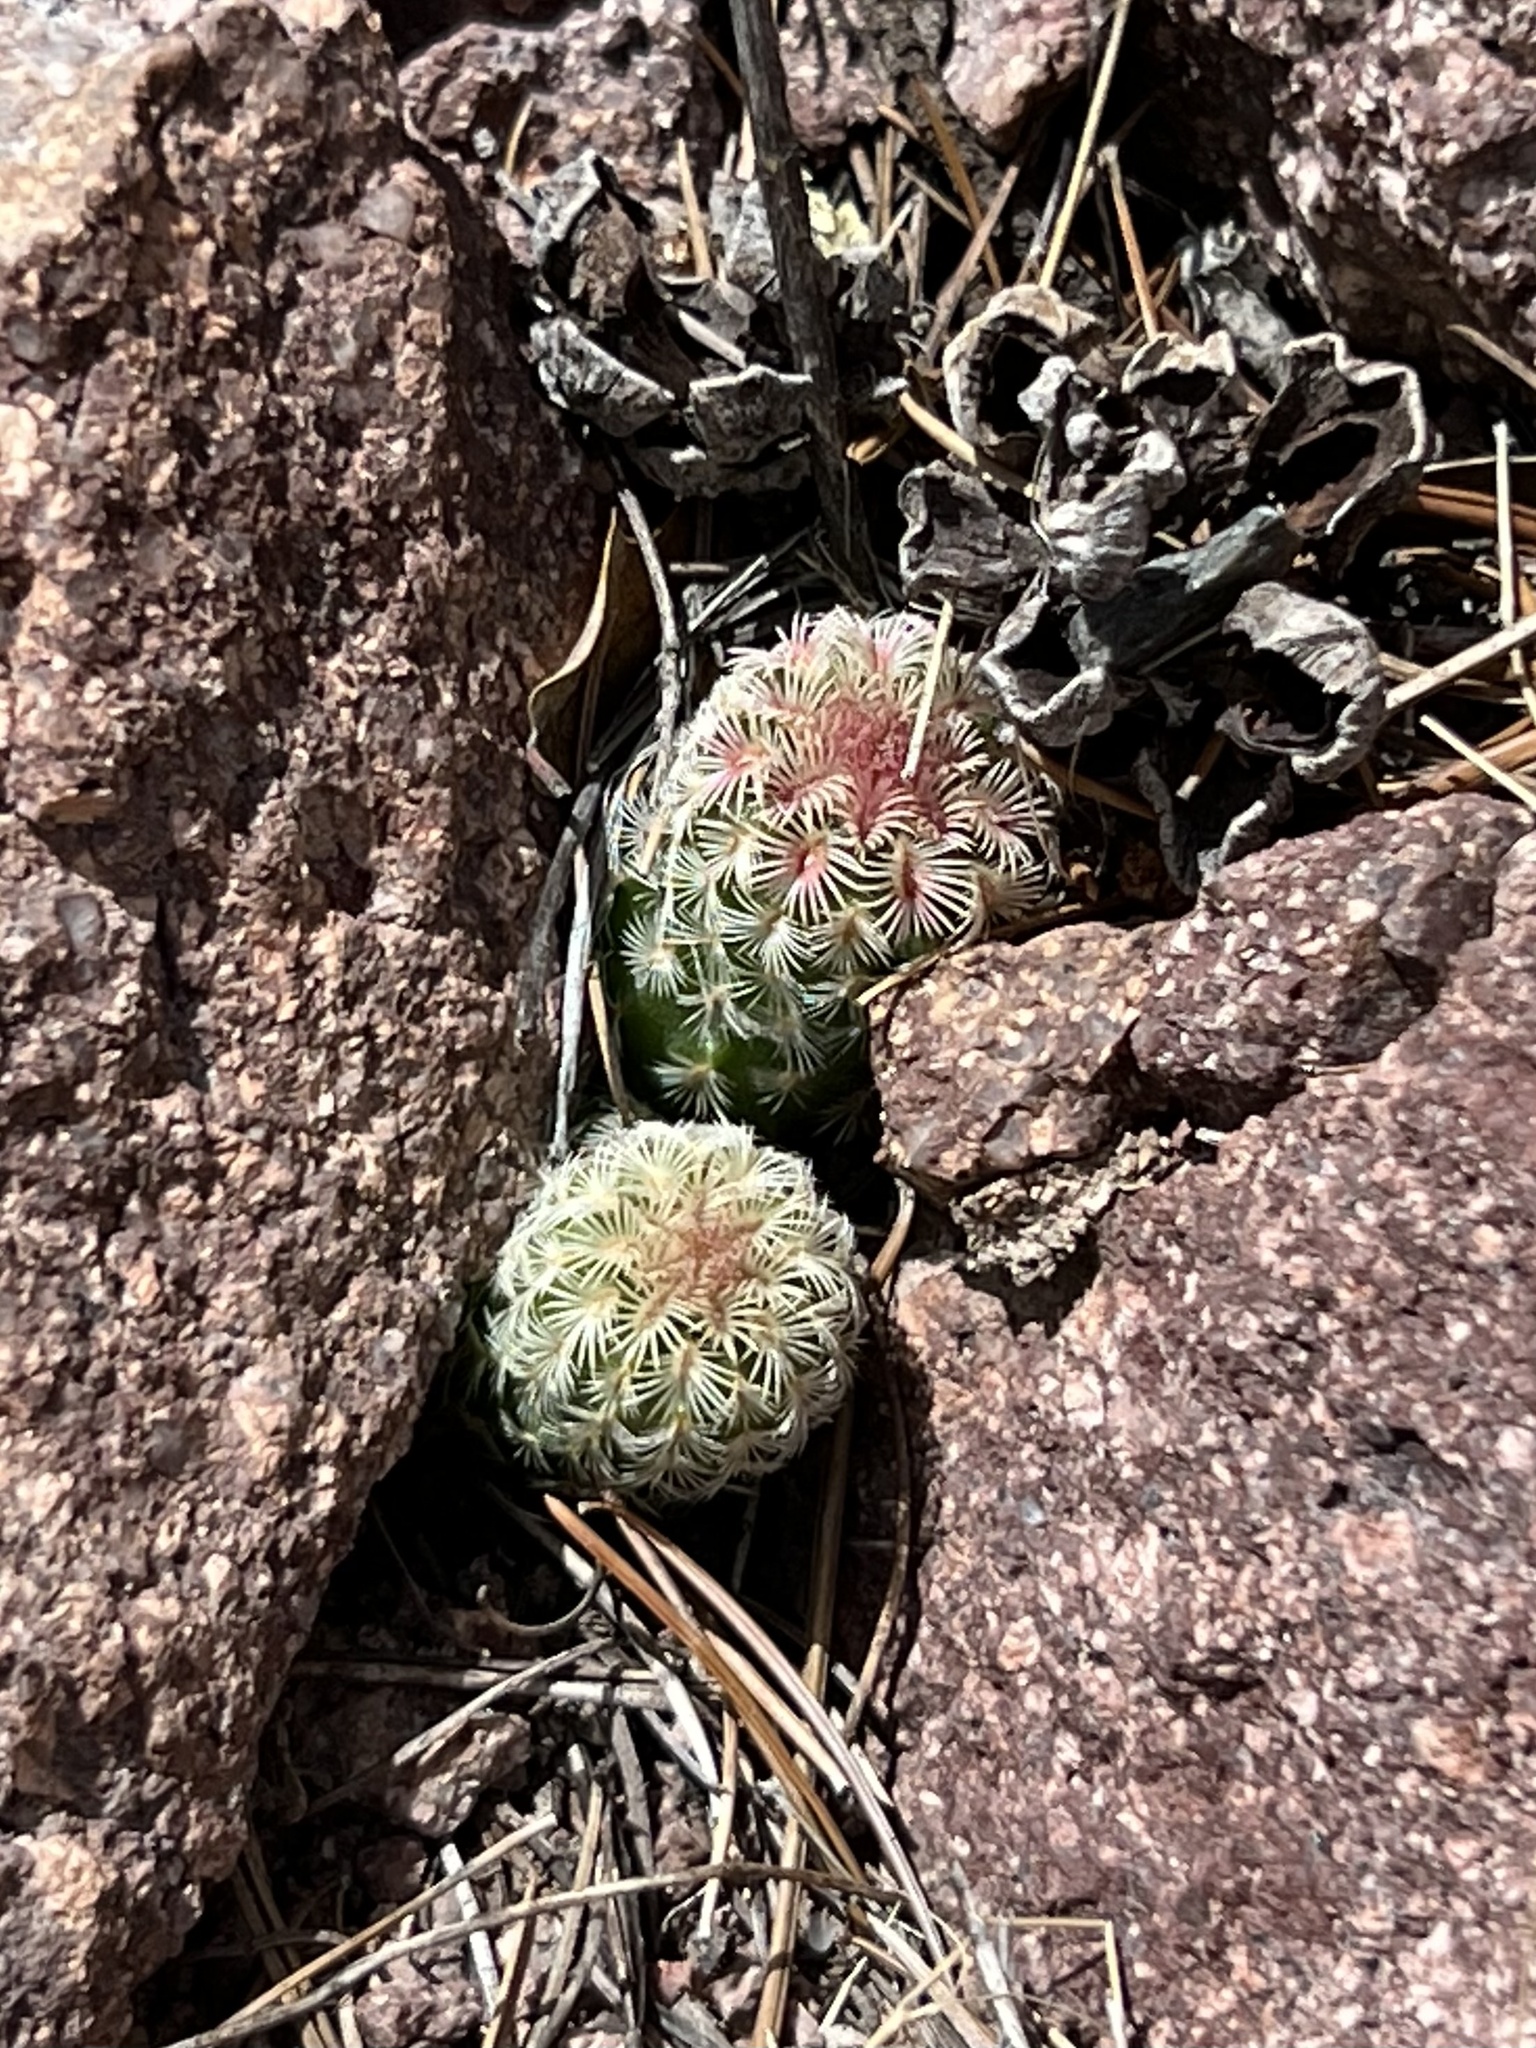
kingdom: Plantae
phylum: Tracheophyta
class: Magnoliopsida
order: Caryophyllales
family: Cactaceae
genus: Echinocereus
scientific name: Echinocereus rigidissimus
